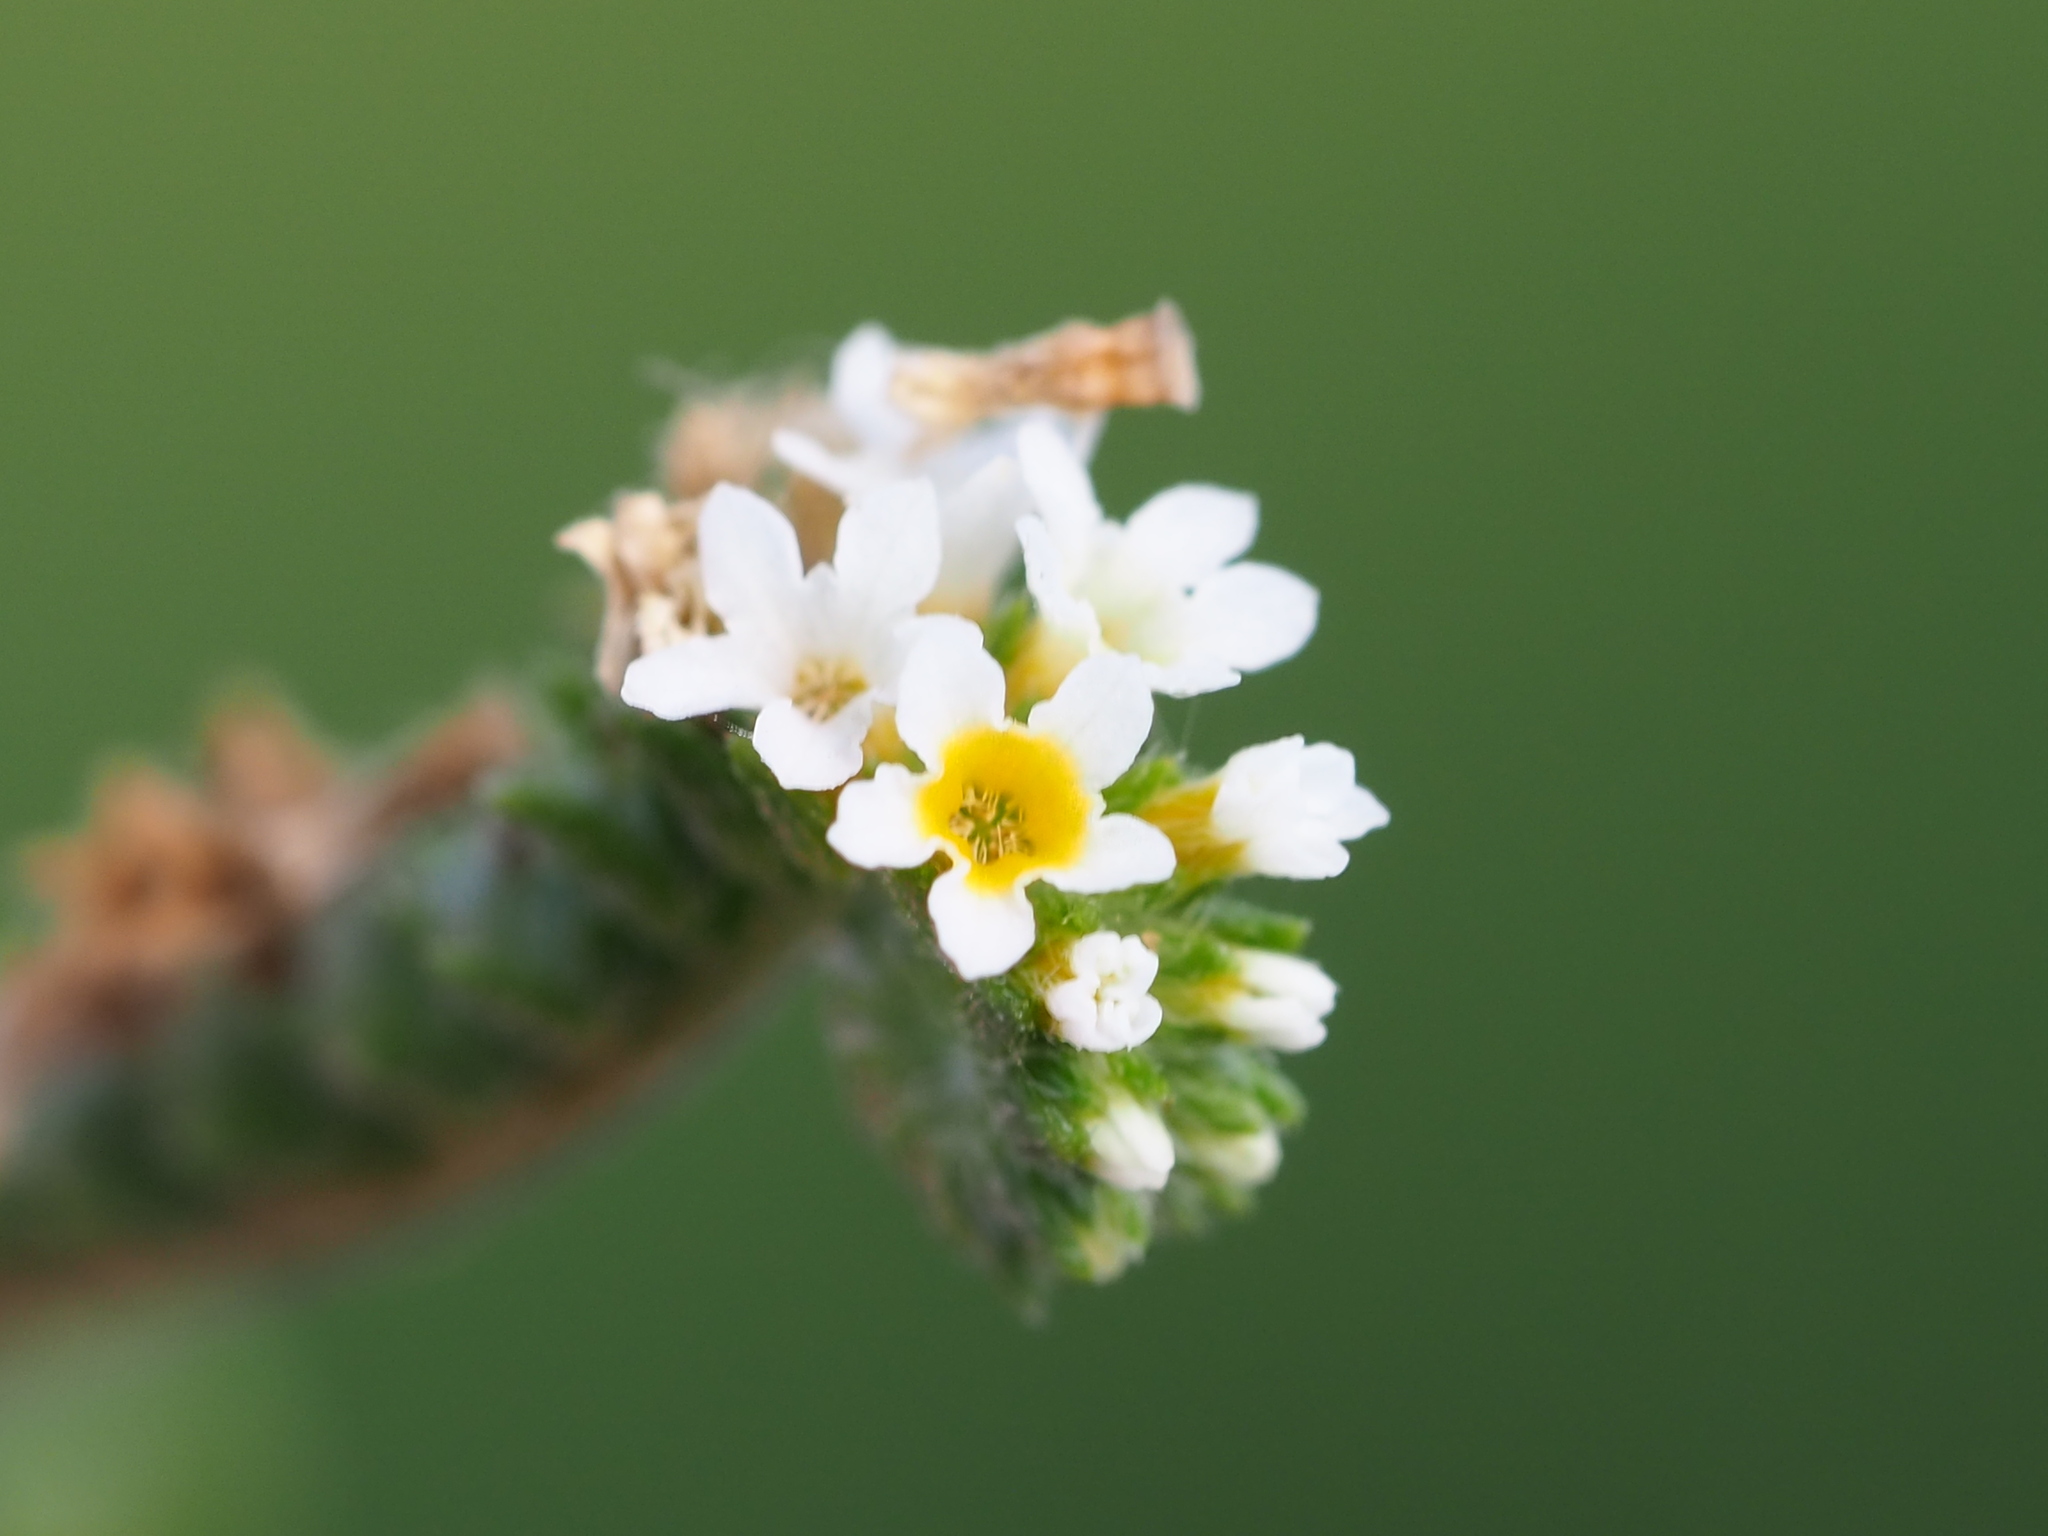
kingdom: Plantae
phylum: Tracheophyta
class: Magnoliopsida
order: Boraginales
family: Heliotropiaceae
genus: Euploca
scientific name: Euploca procumbens
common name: Fourspike heliotrope
